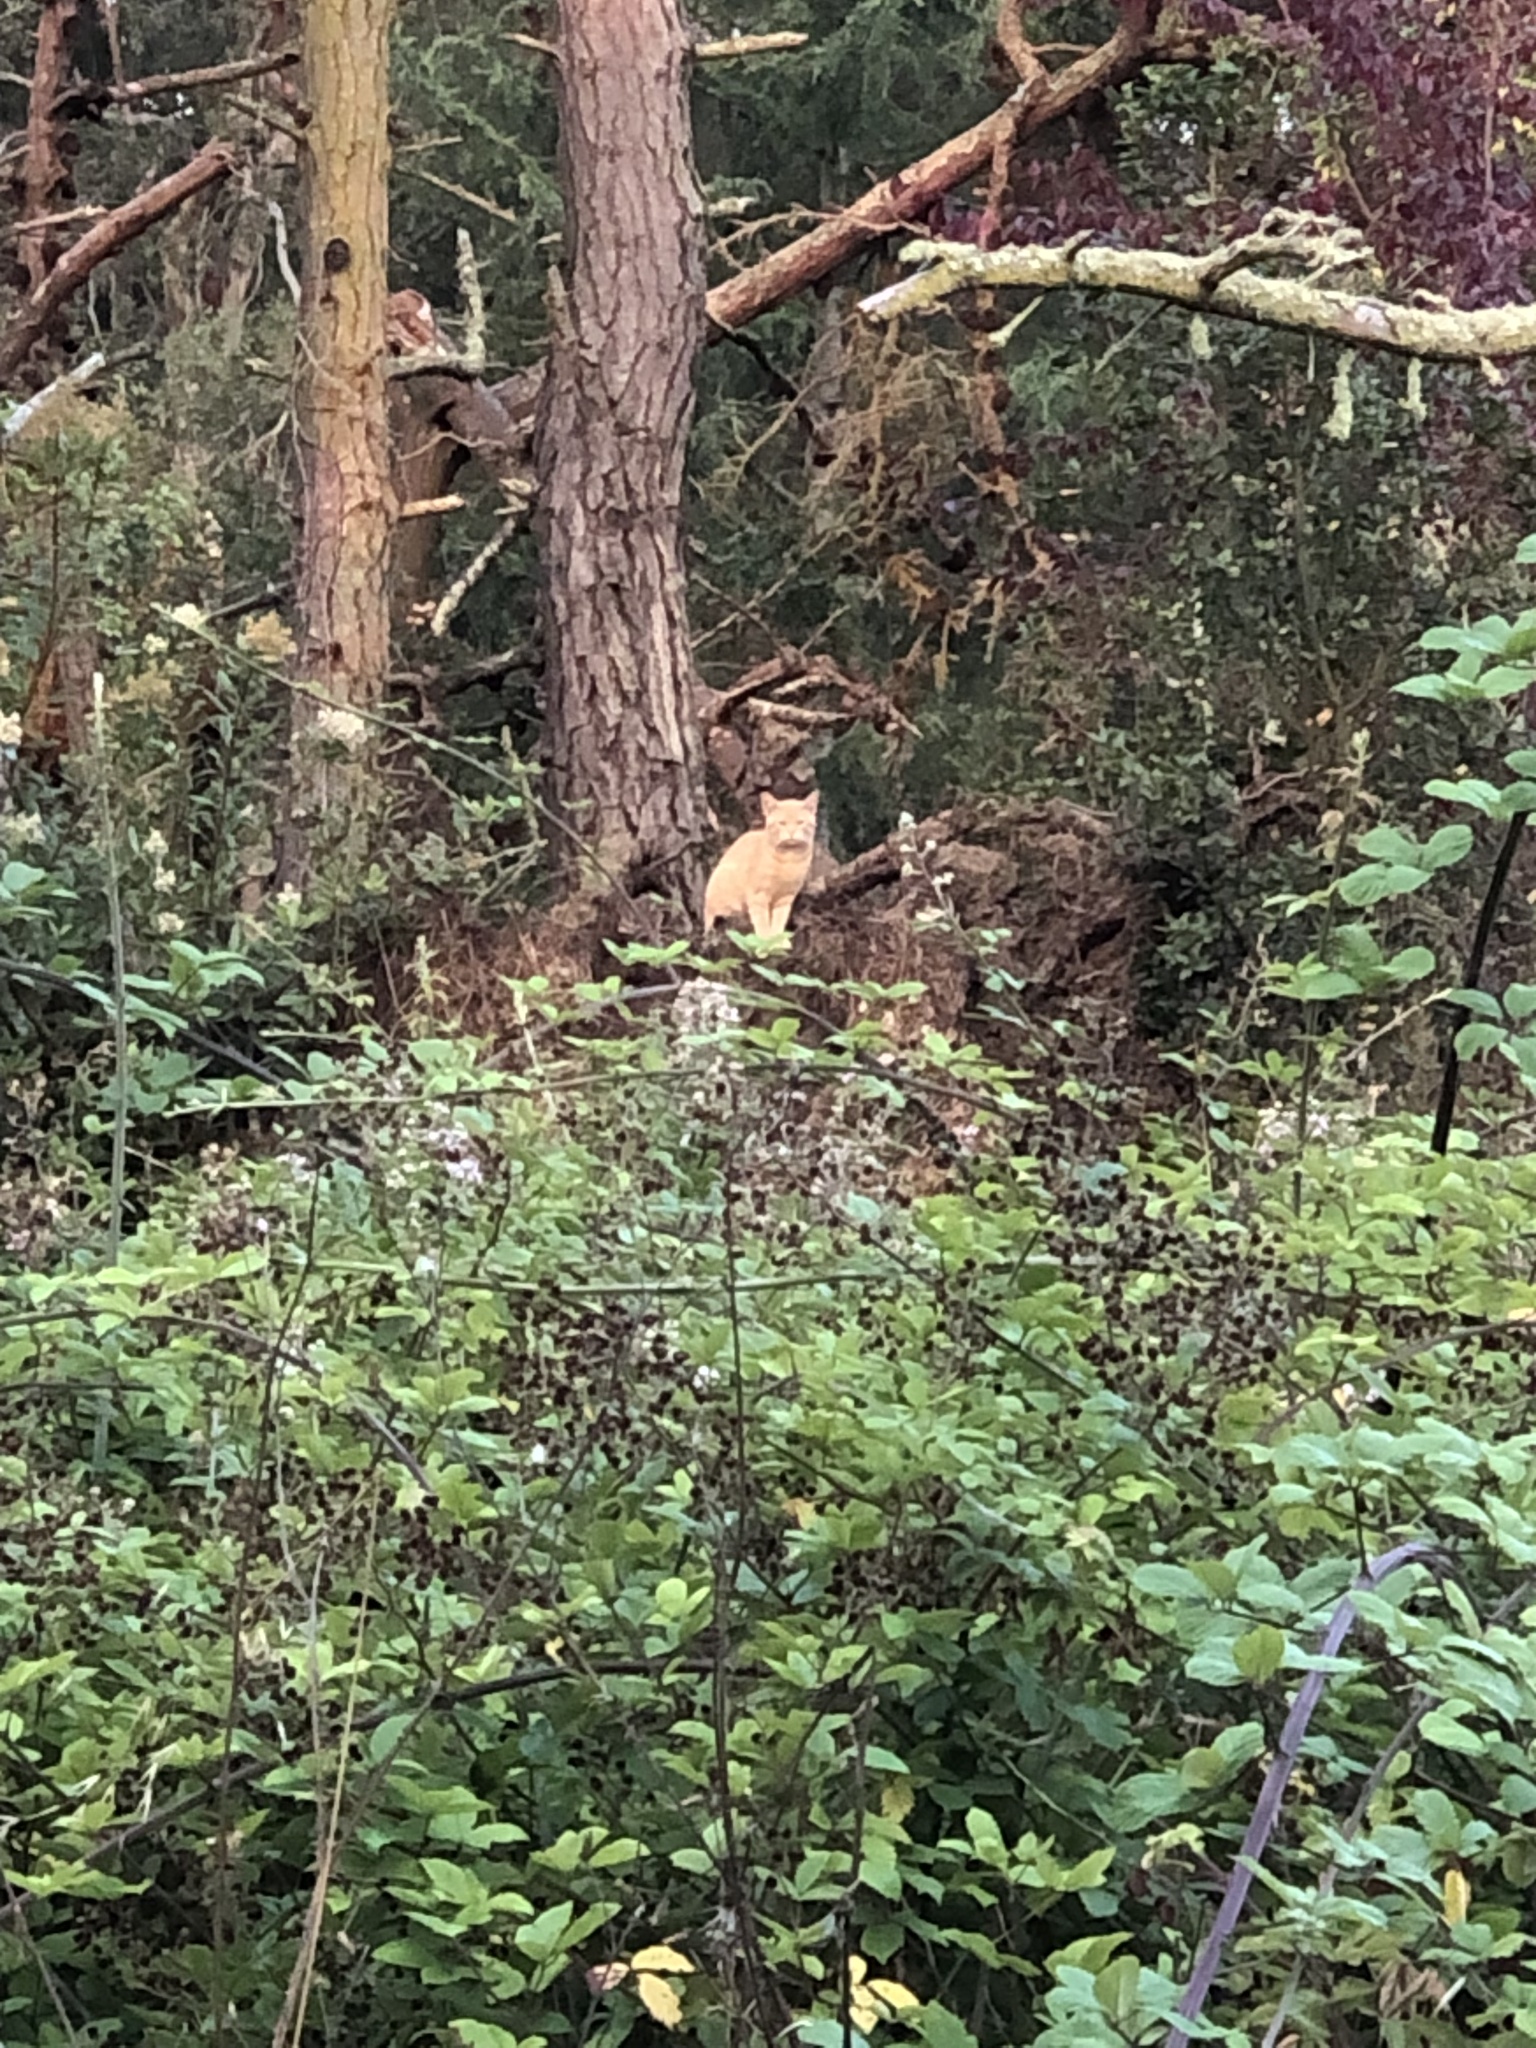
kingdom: Animalia
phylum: Chordata
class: Mammalia
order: Carnivora
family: Felidae
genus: Felis
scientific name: Felis catus
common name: Domestic cat
